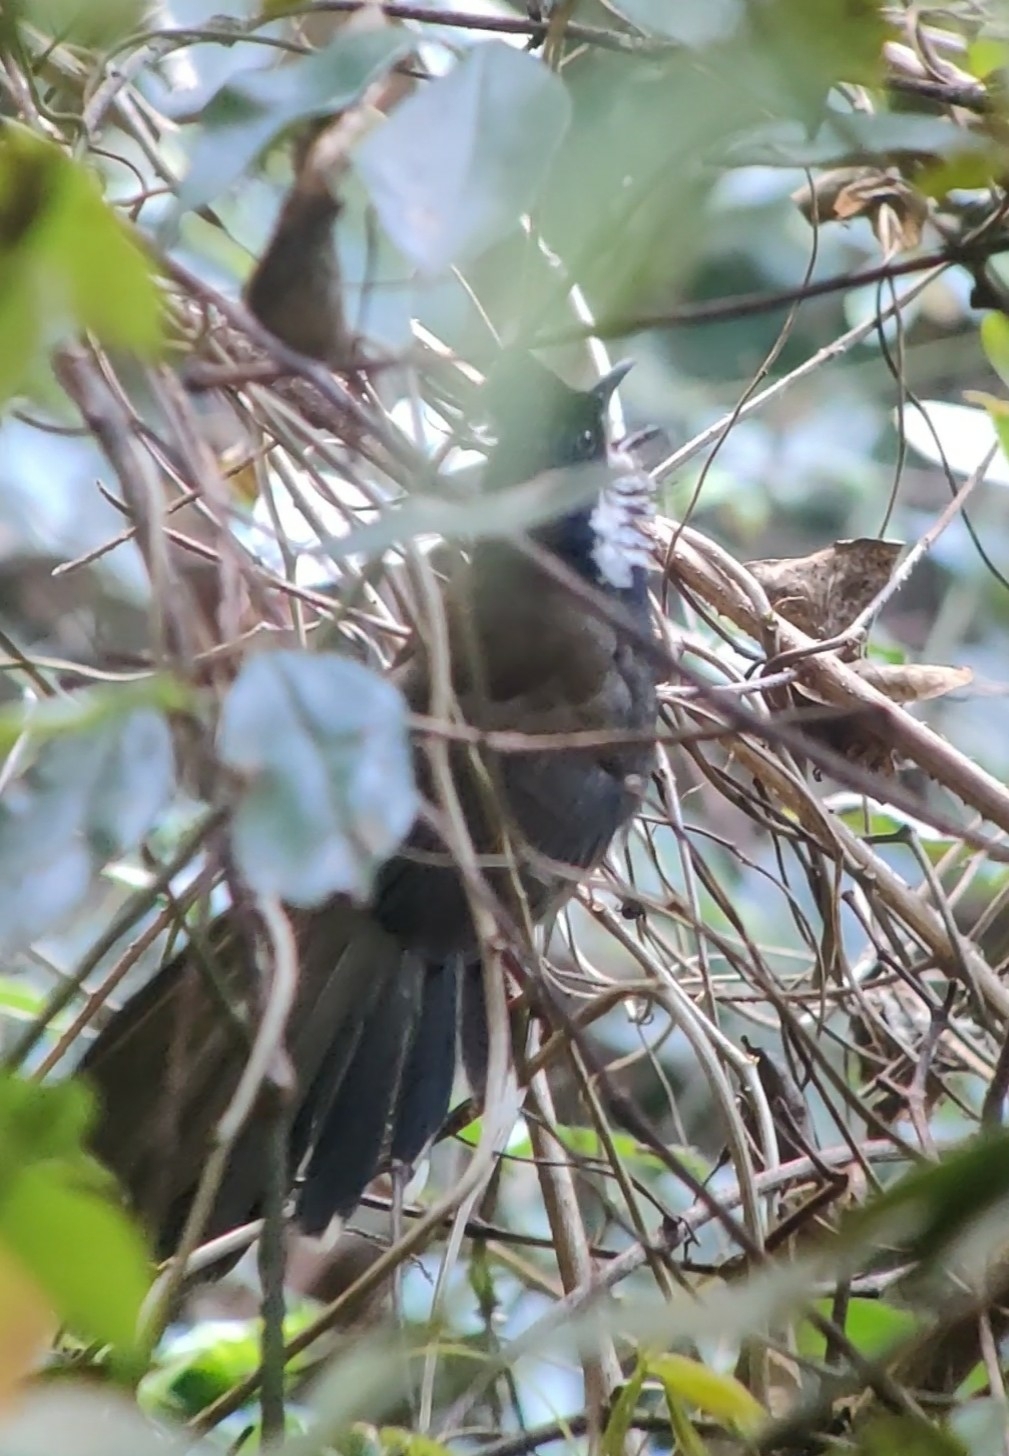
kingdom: Animalia
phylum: Chordata
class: Aves
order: Passeriformes
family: Psophodidae
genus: Psophodes
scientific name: Psophodes olivaceus
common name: Eastern whipbird
